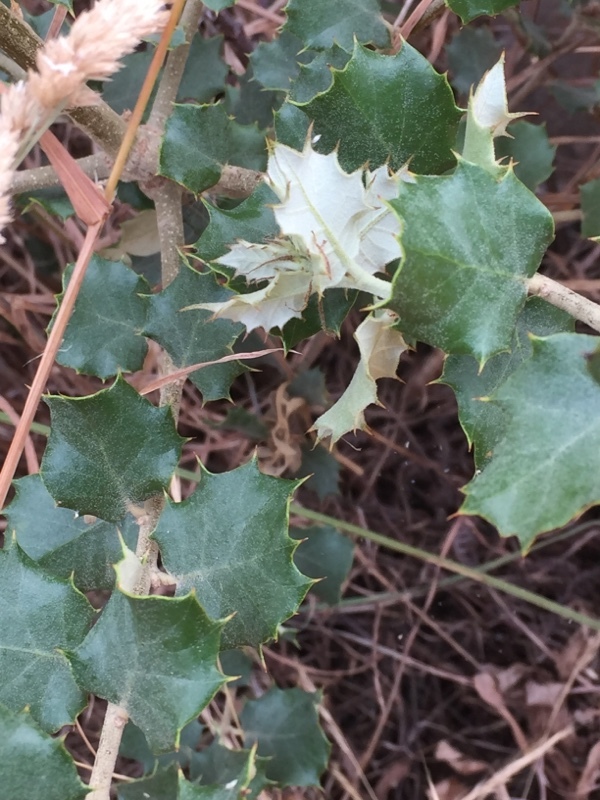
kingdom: Plantae
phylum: Tracheophyta
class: Magnoliopsida
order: Fagales
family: Fagaceae
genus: Quercus
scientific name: Quercus rotundifolia
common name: Holm oak
